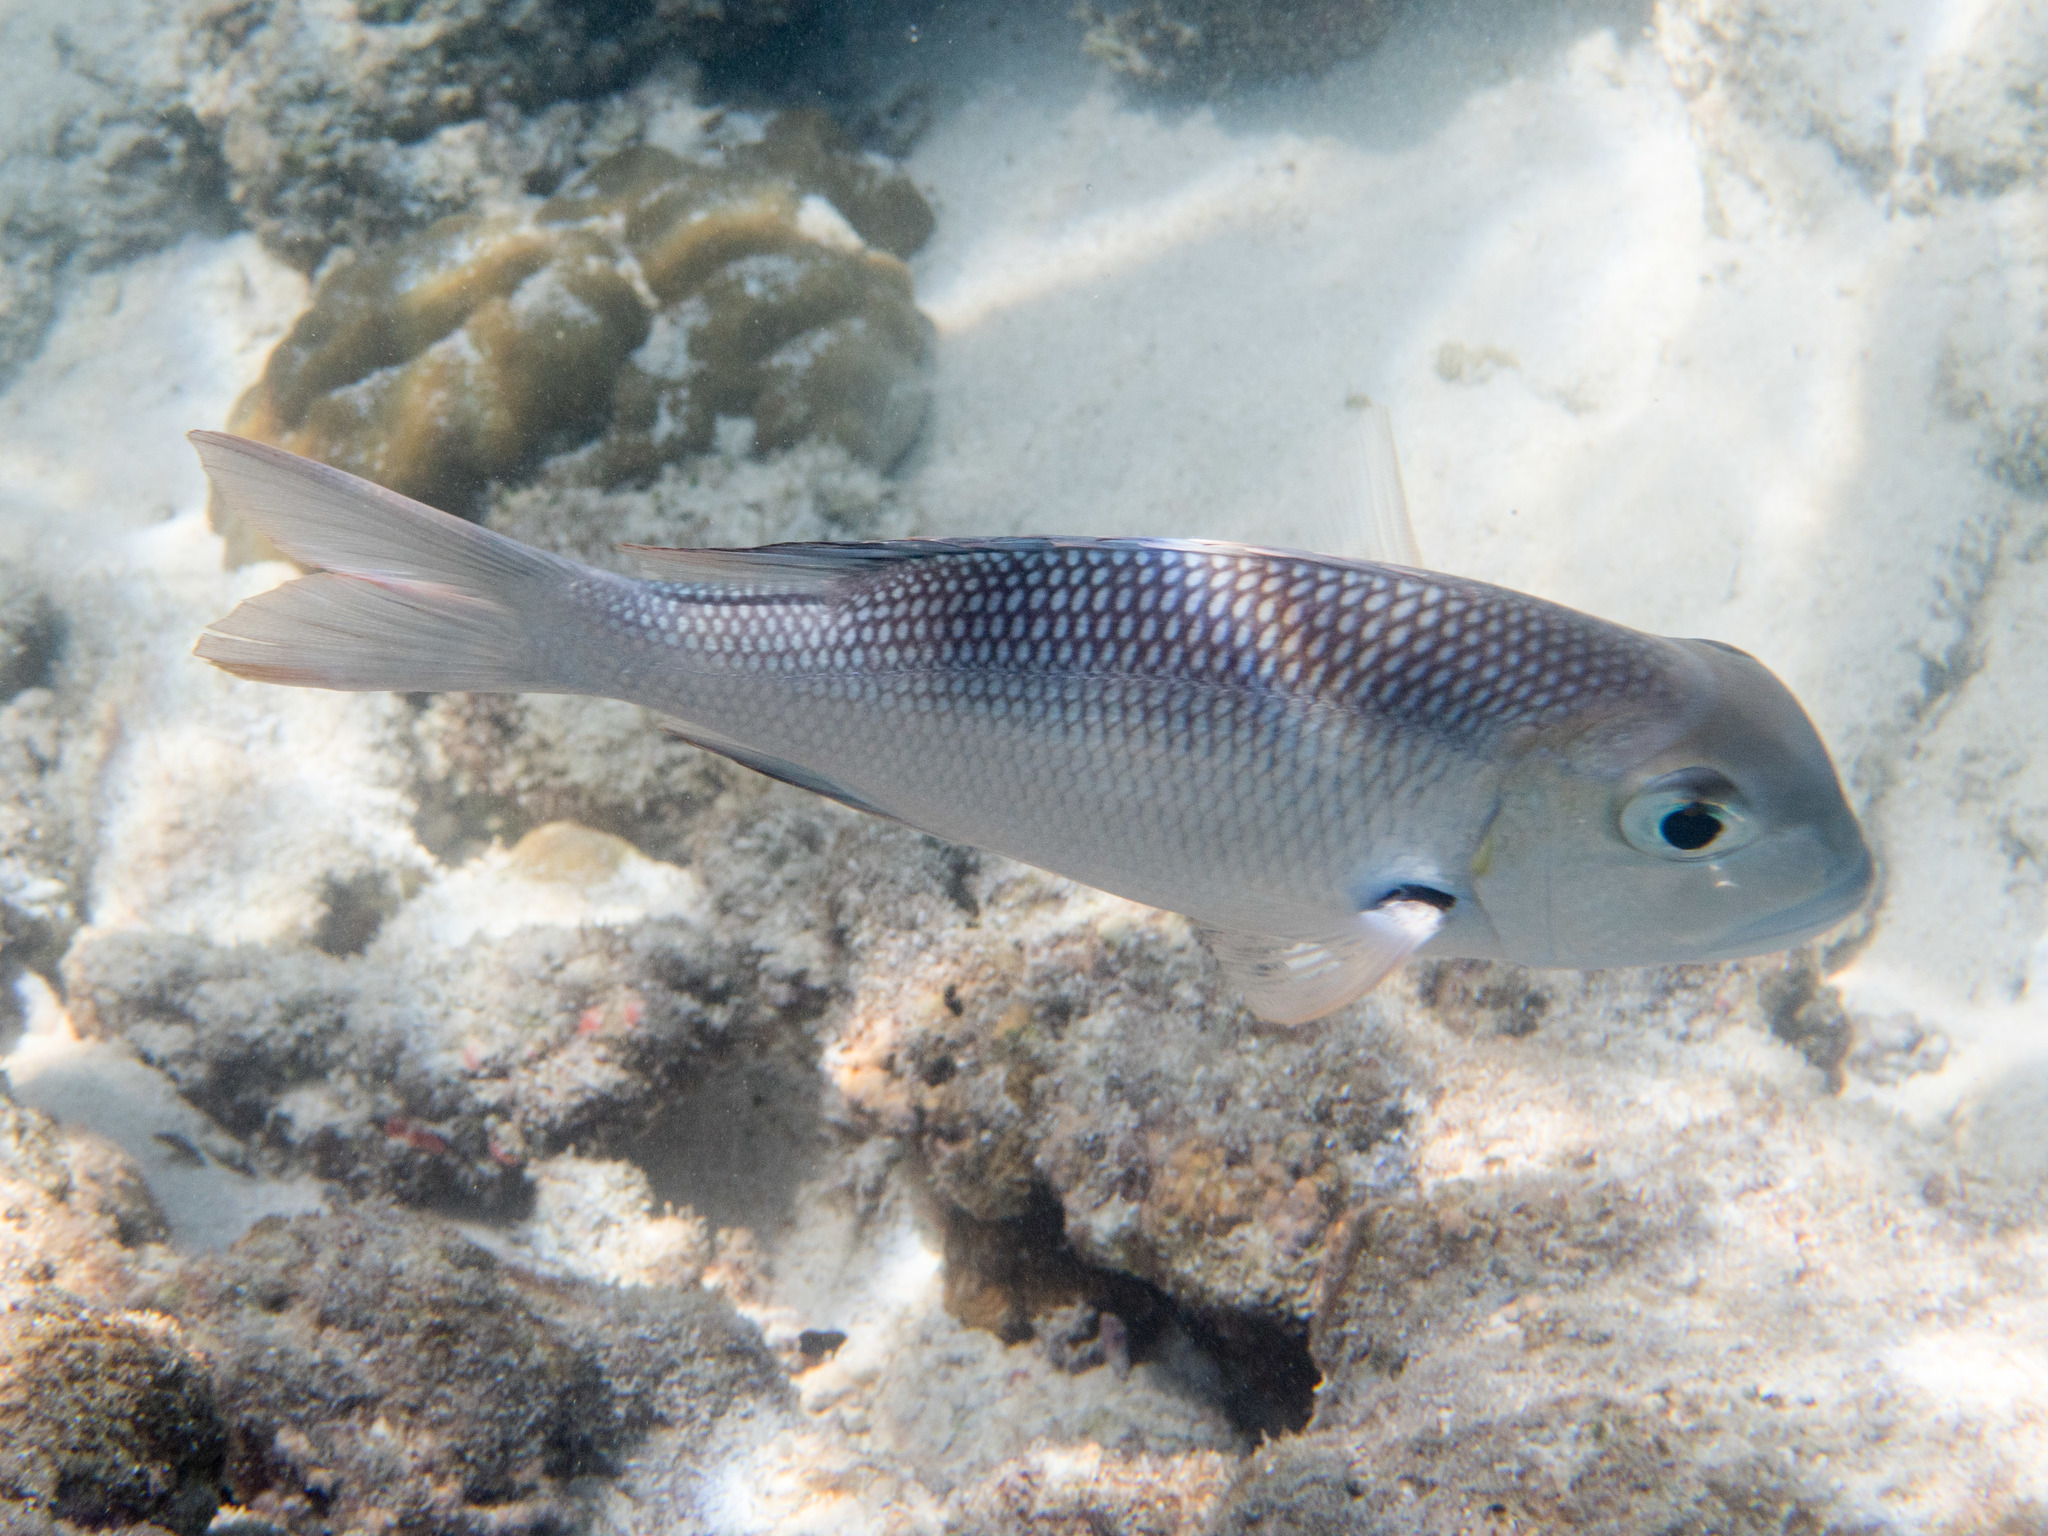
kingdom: Animalia
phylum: Chordata
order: Perciformes
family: Lethrinidae
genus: Monotaxis
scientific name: Monotaxis grandoculis
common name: Bigeye emperor
